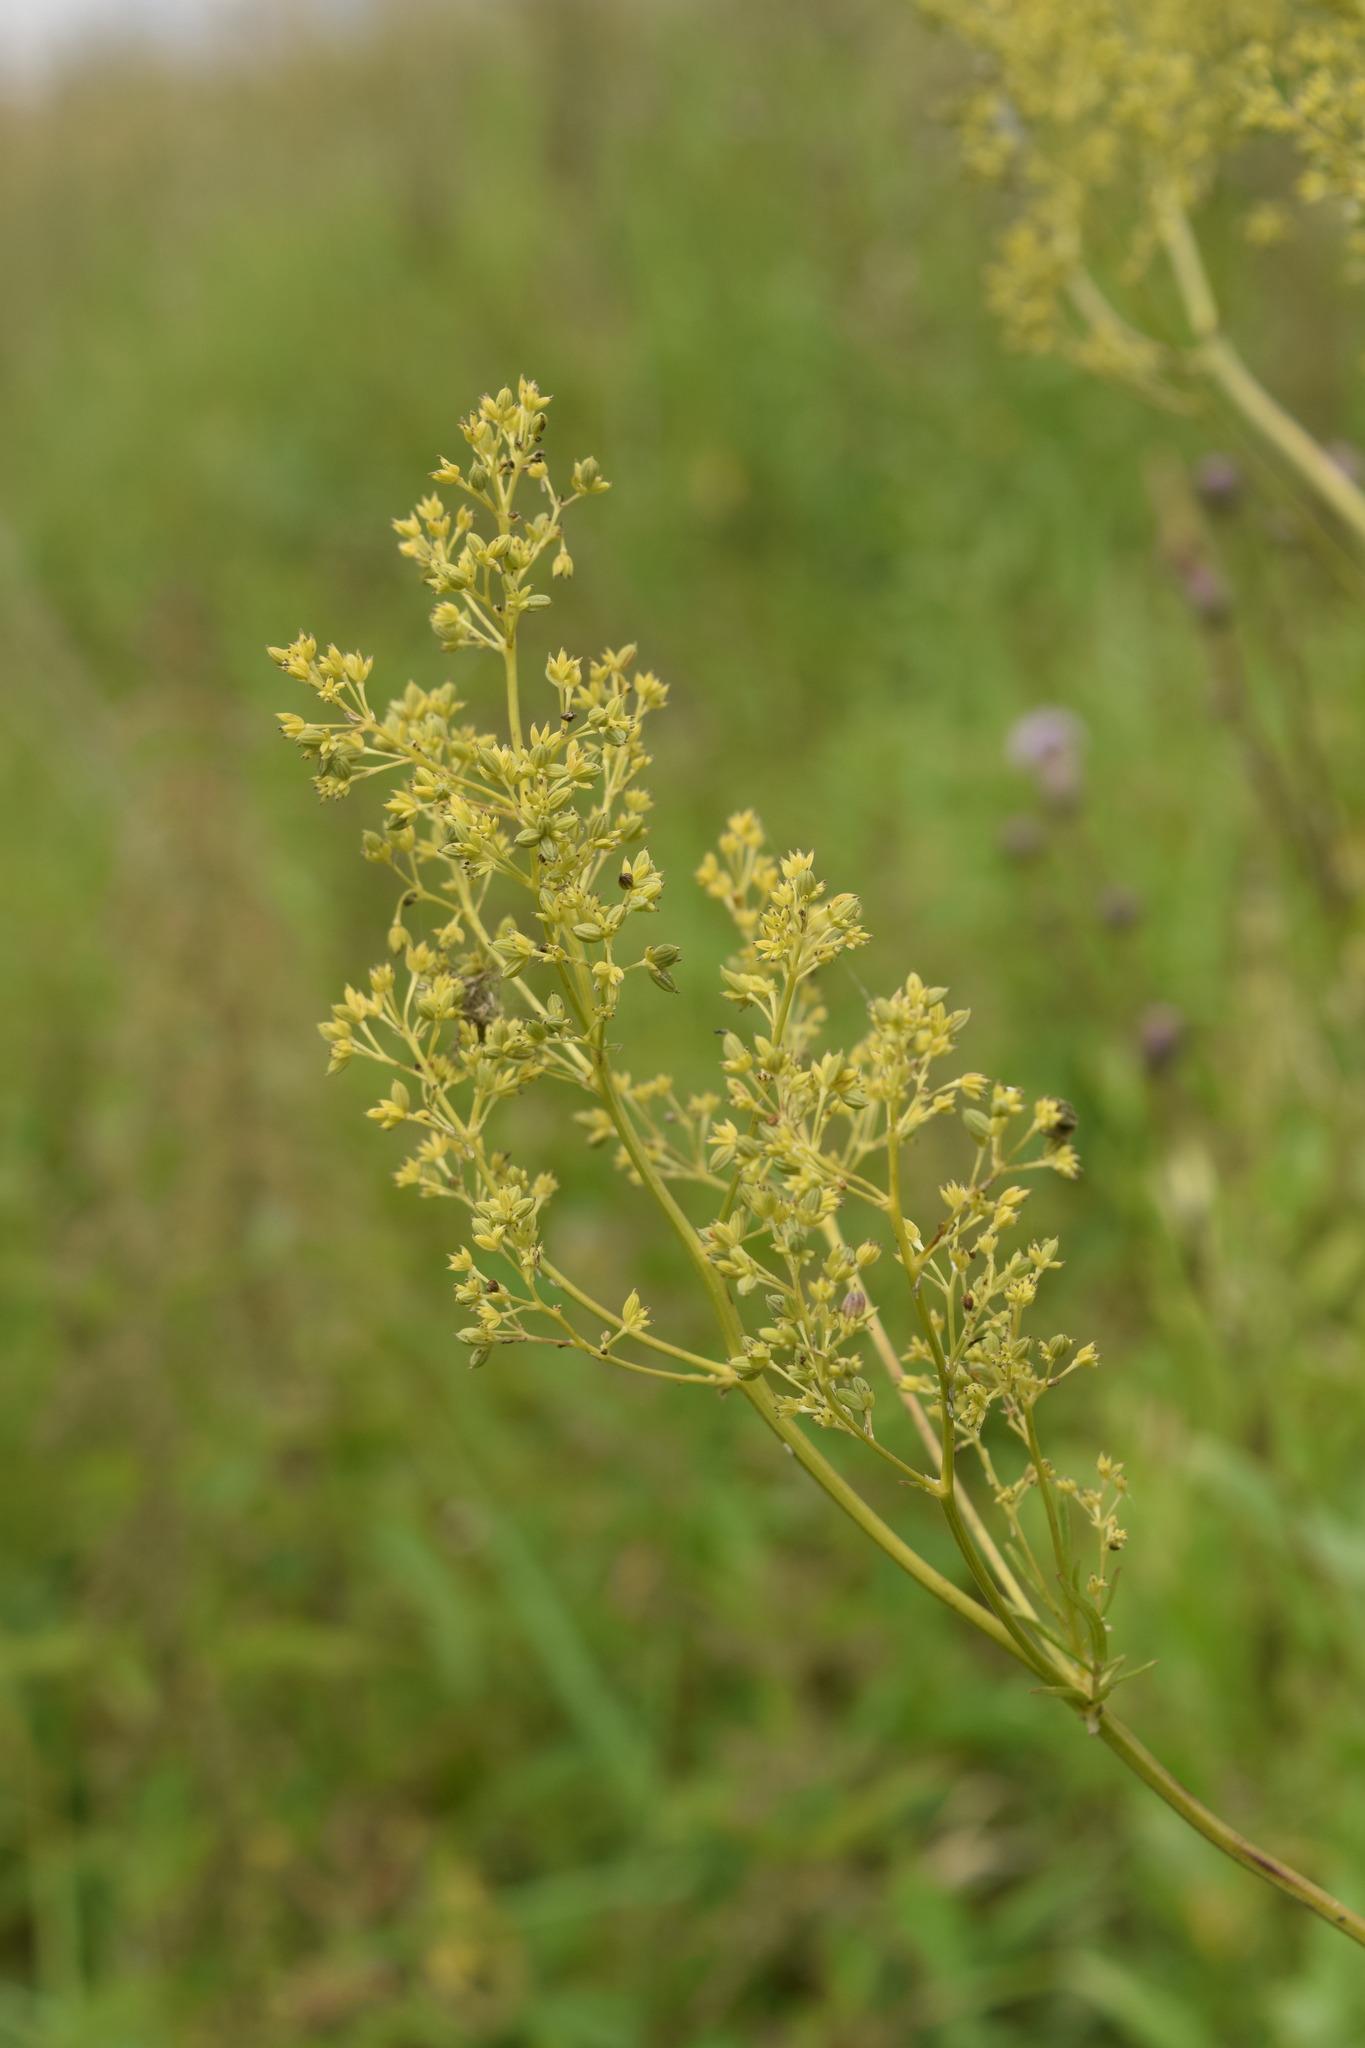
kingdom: Plantae
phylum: Tracheophyta
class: Magnoliopsida
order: Ranunculales
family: Ranunculaceae
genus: Thalictrum
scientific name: Thalictrum lucidum
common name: Shining meadow-rue
